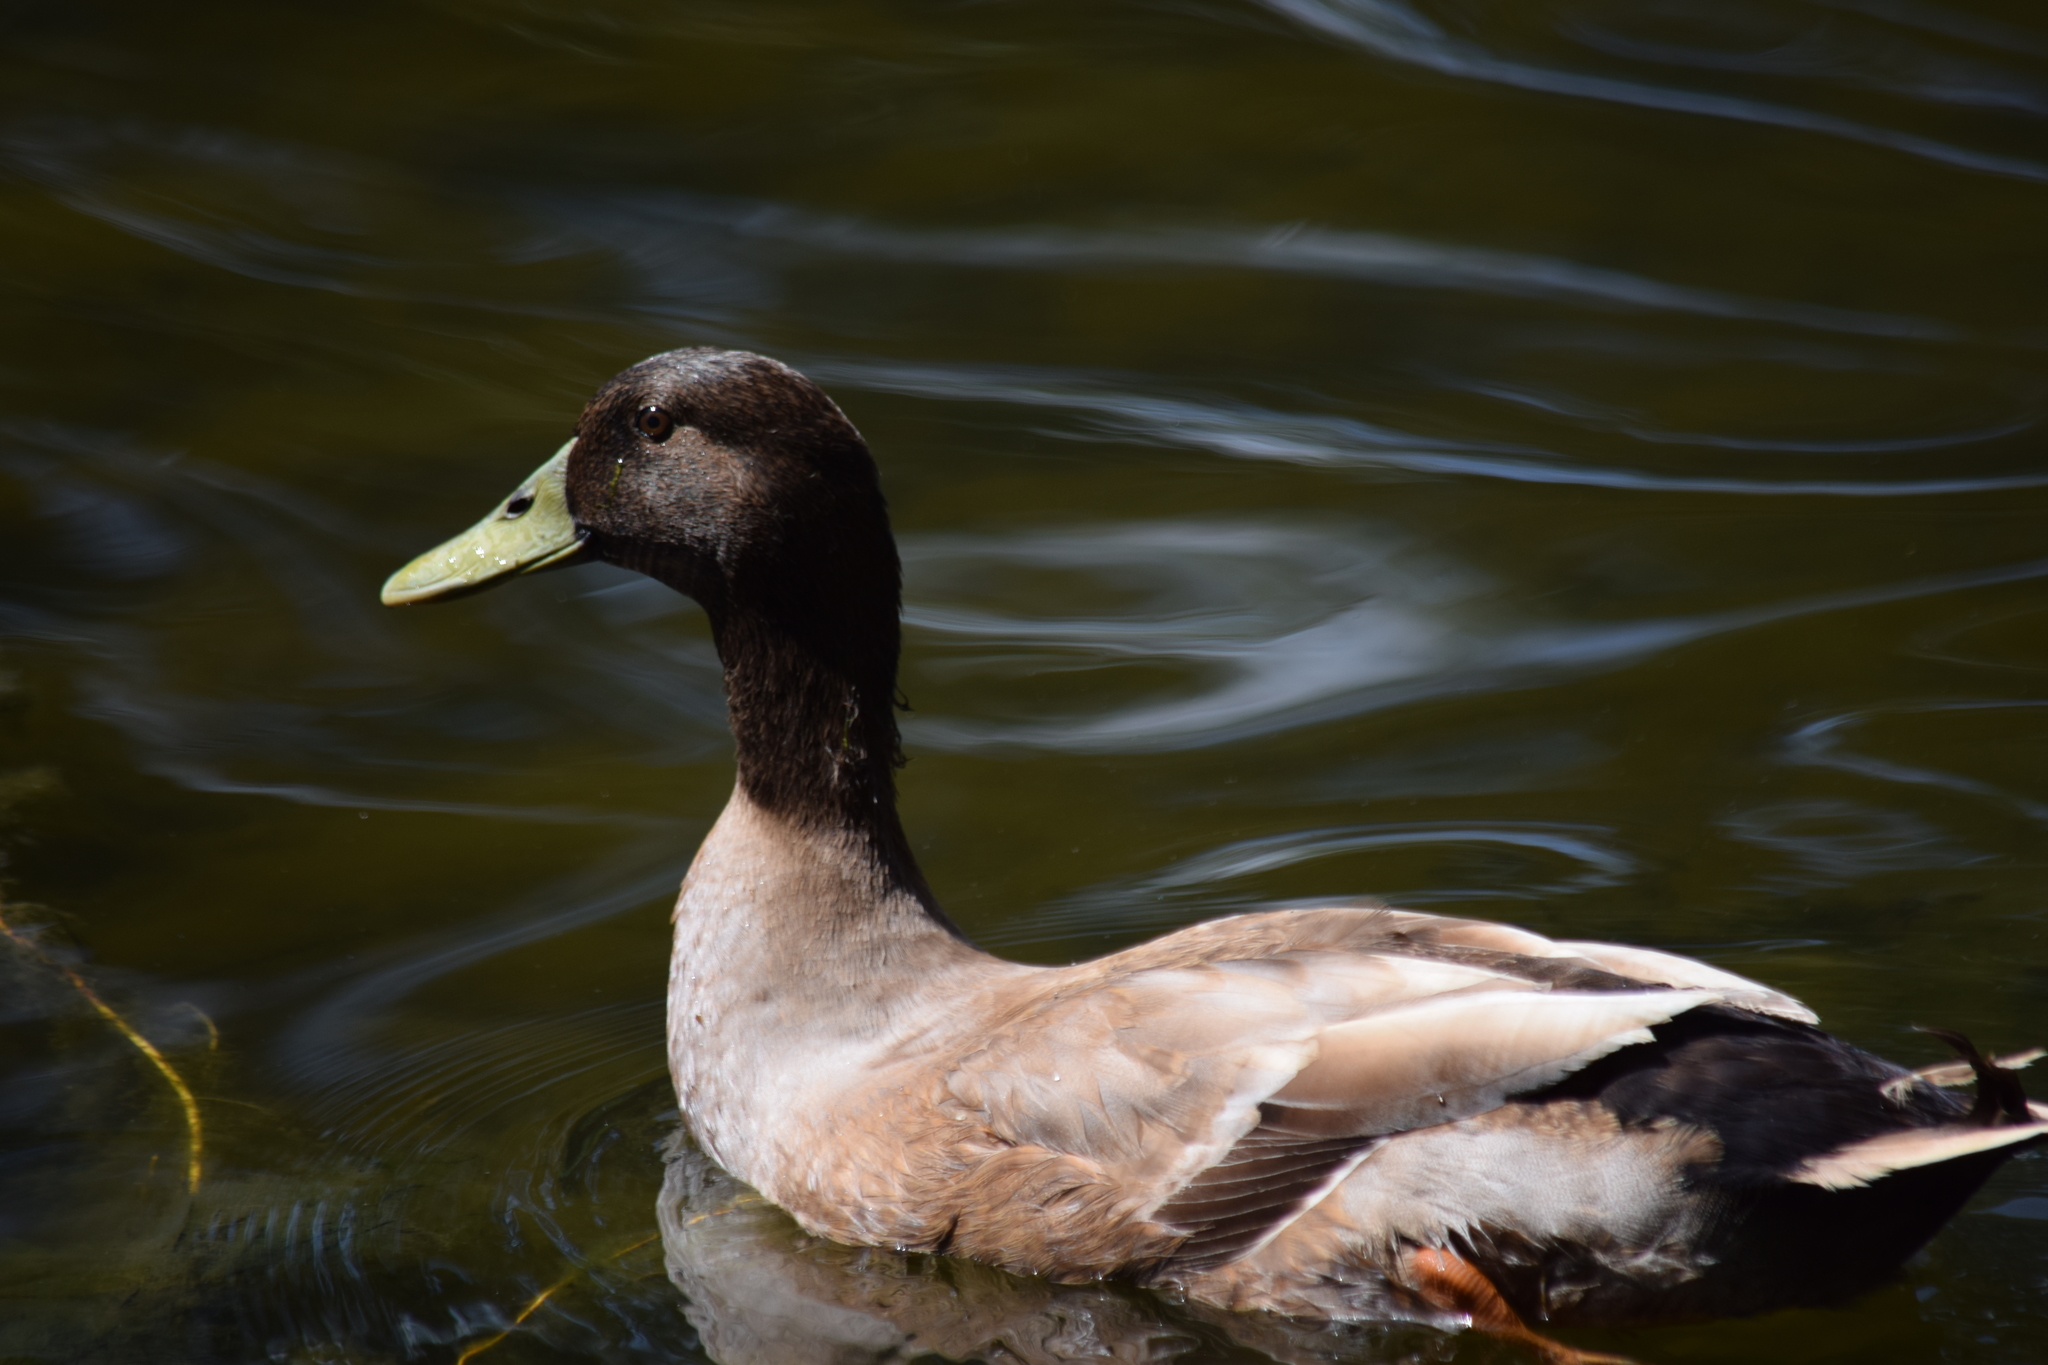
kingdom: Animalia
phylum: Chordata
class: Aves
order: Anseriformes
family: Anatidae
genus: Anas
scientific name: Anas platyrhynchos
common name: Mallard
